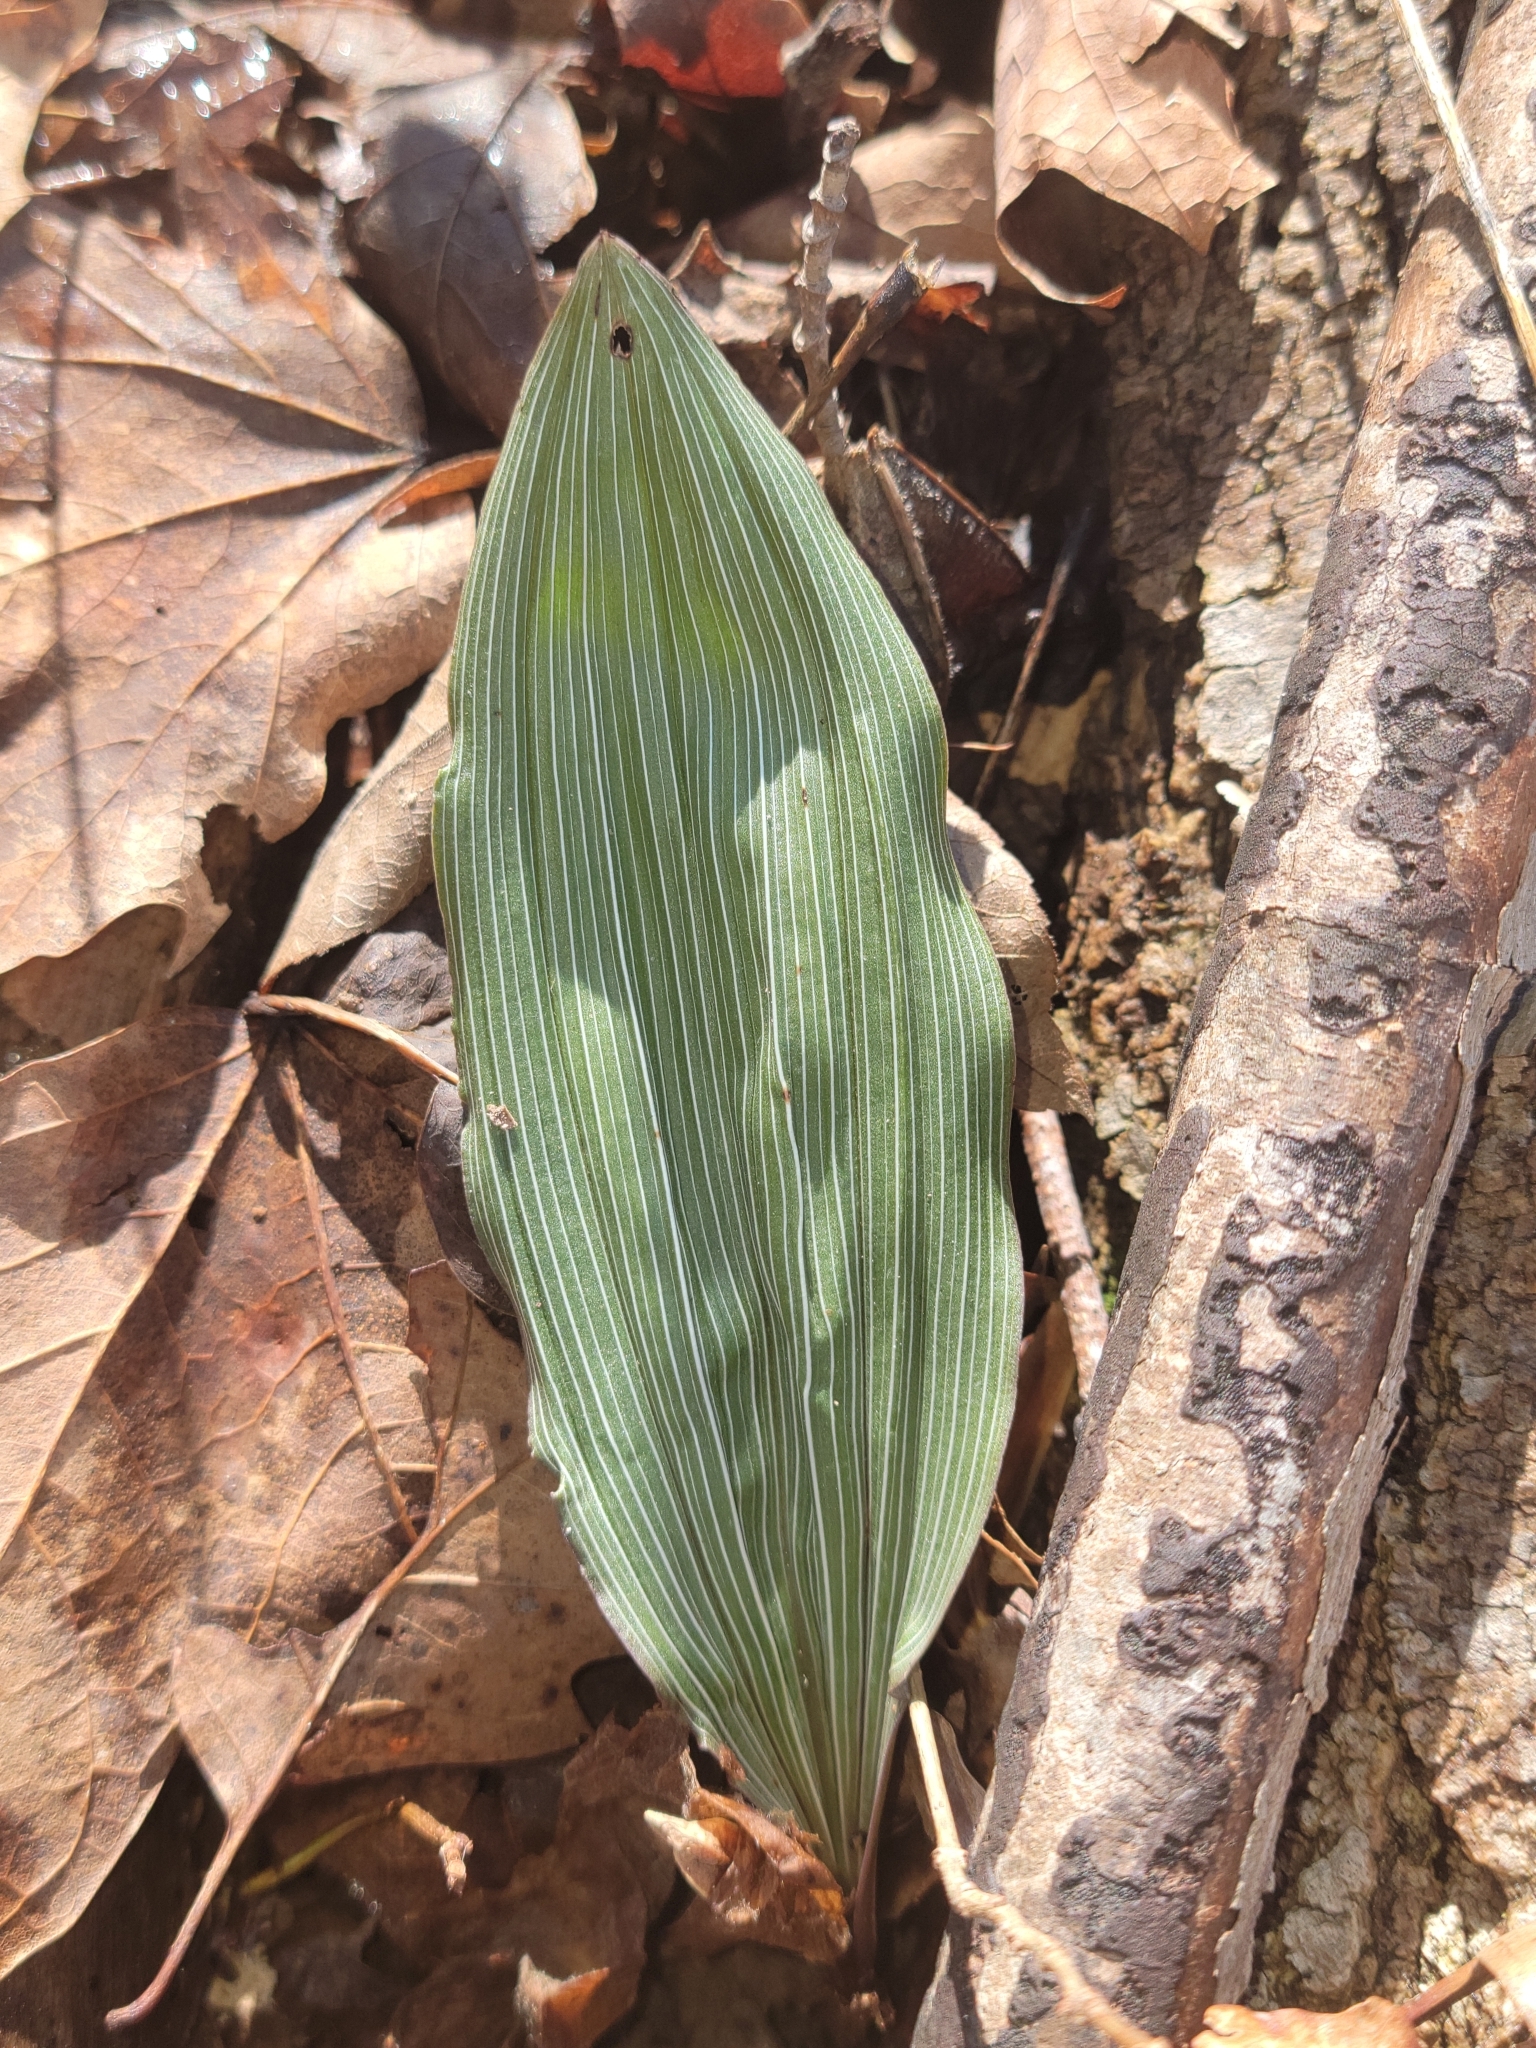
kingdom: Plantae
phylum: Tracheophyta
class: Liliopsida
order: Asparagales
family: Orchidaceae
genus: Aplectrum
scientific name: Aplectrum hyemale
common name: Adam-and-eve
